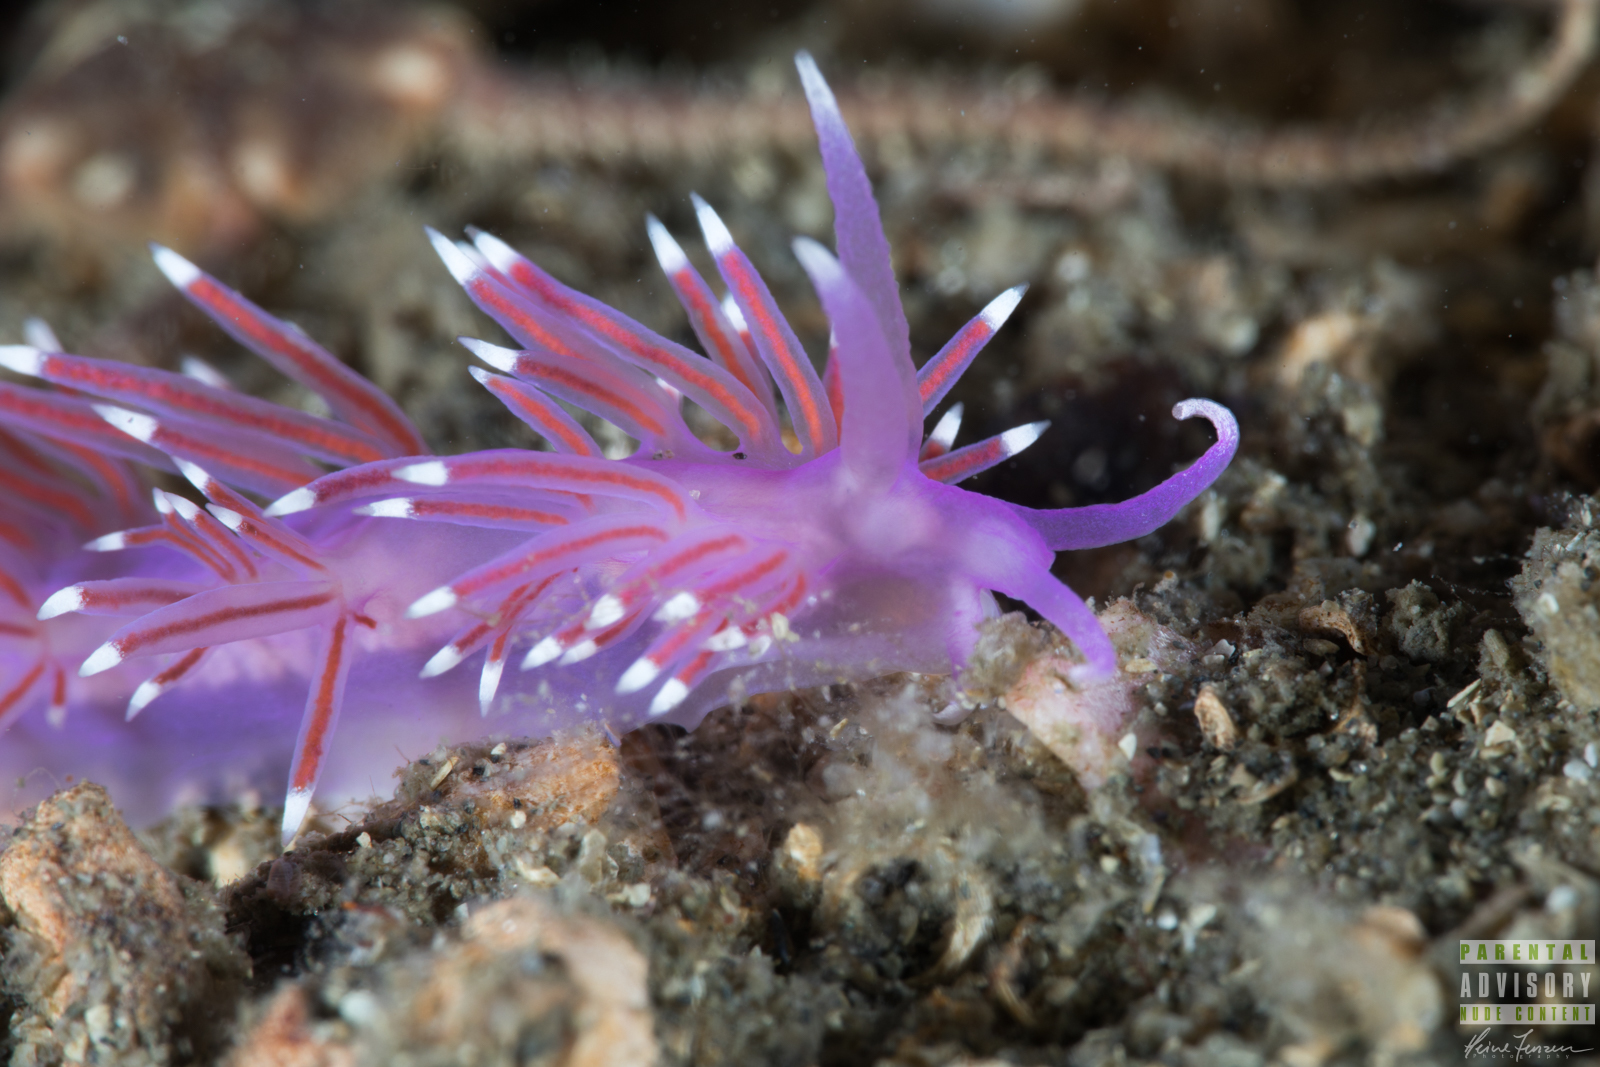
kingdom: Animalia
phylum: Mollusca
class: Gastropoda
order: Nudibranchia
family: Flabellinidae
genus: Edmundsella
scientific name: Edmundsella pedata
